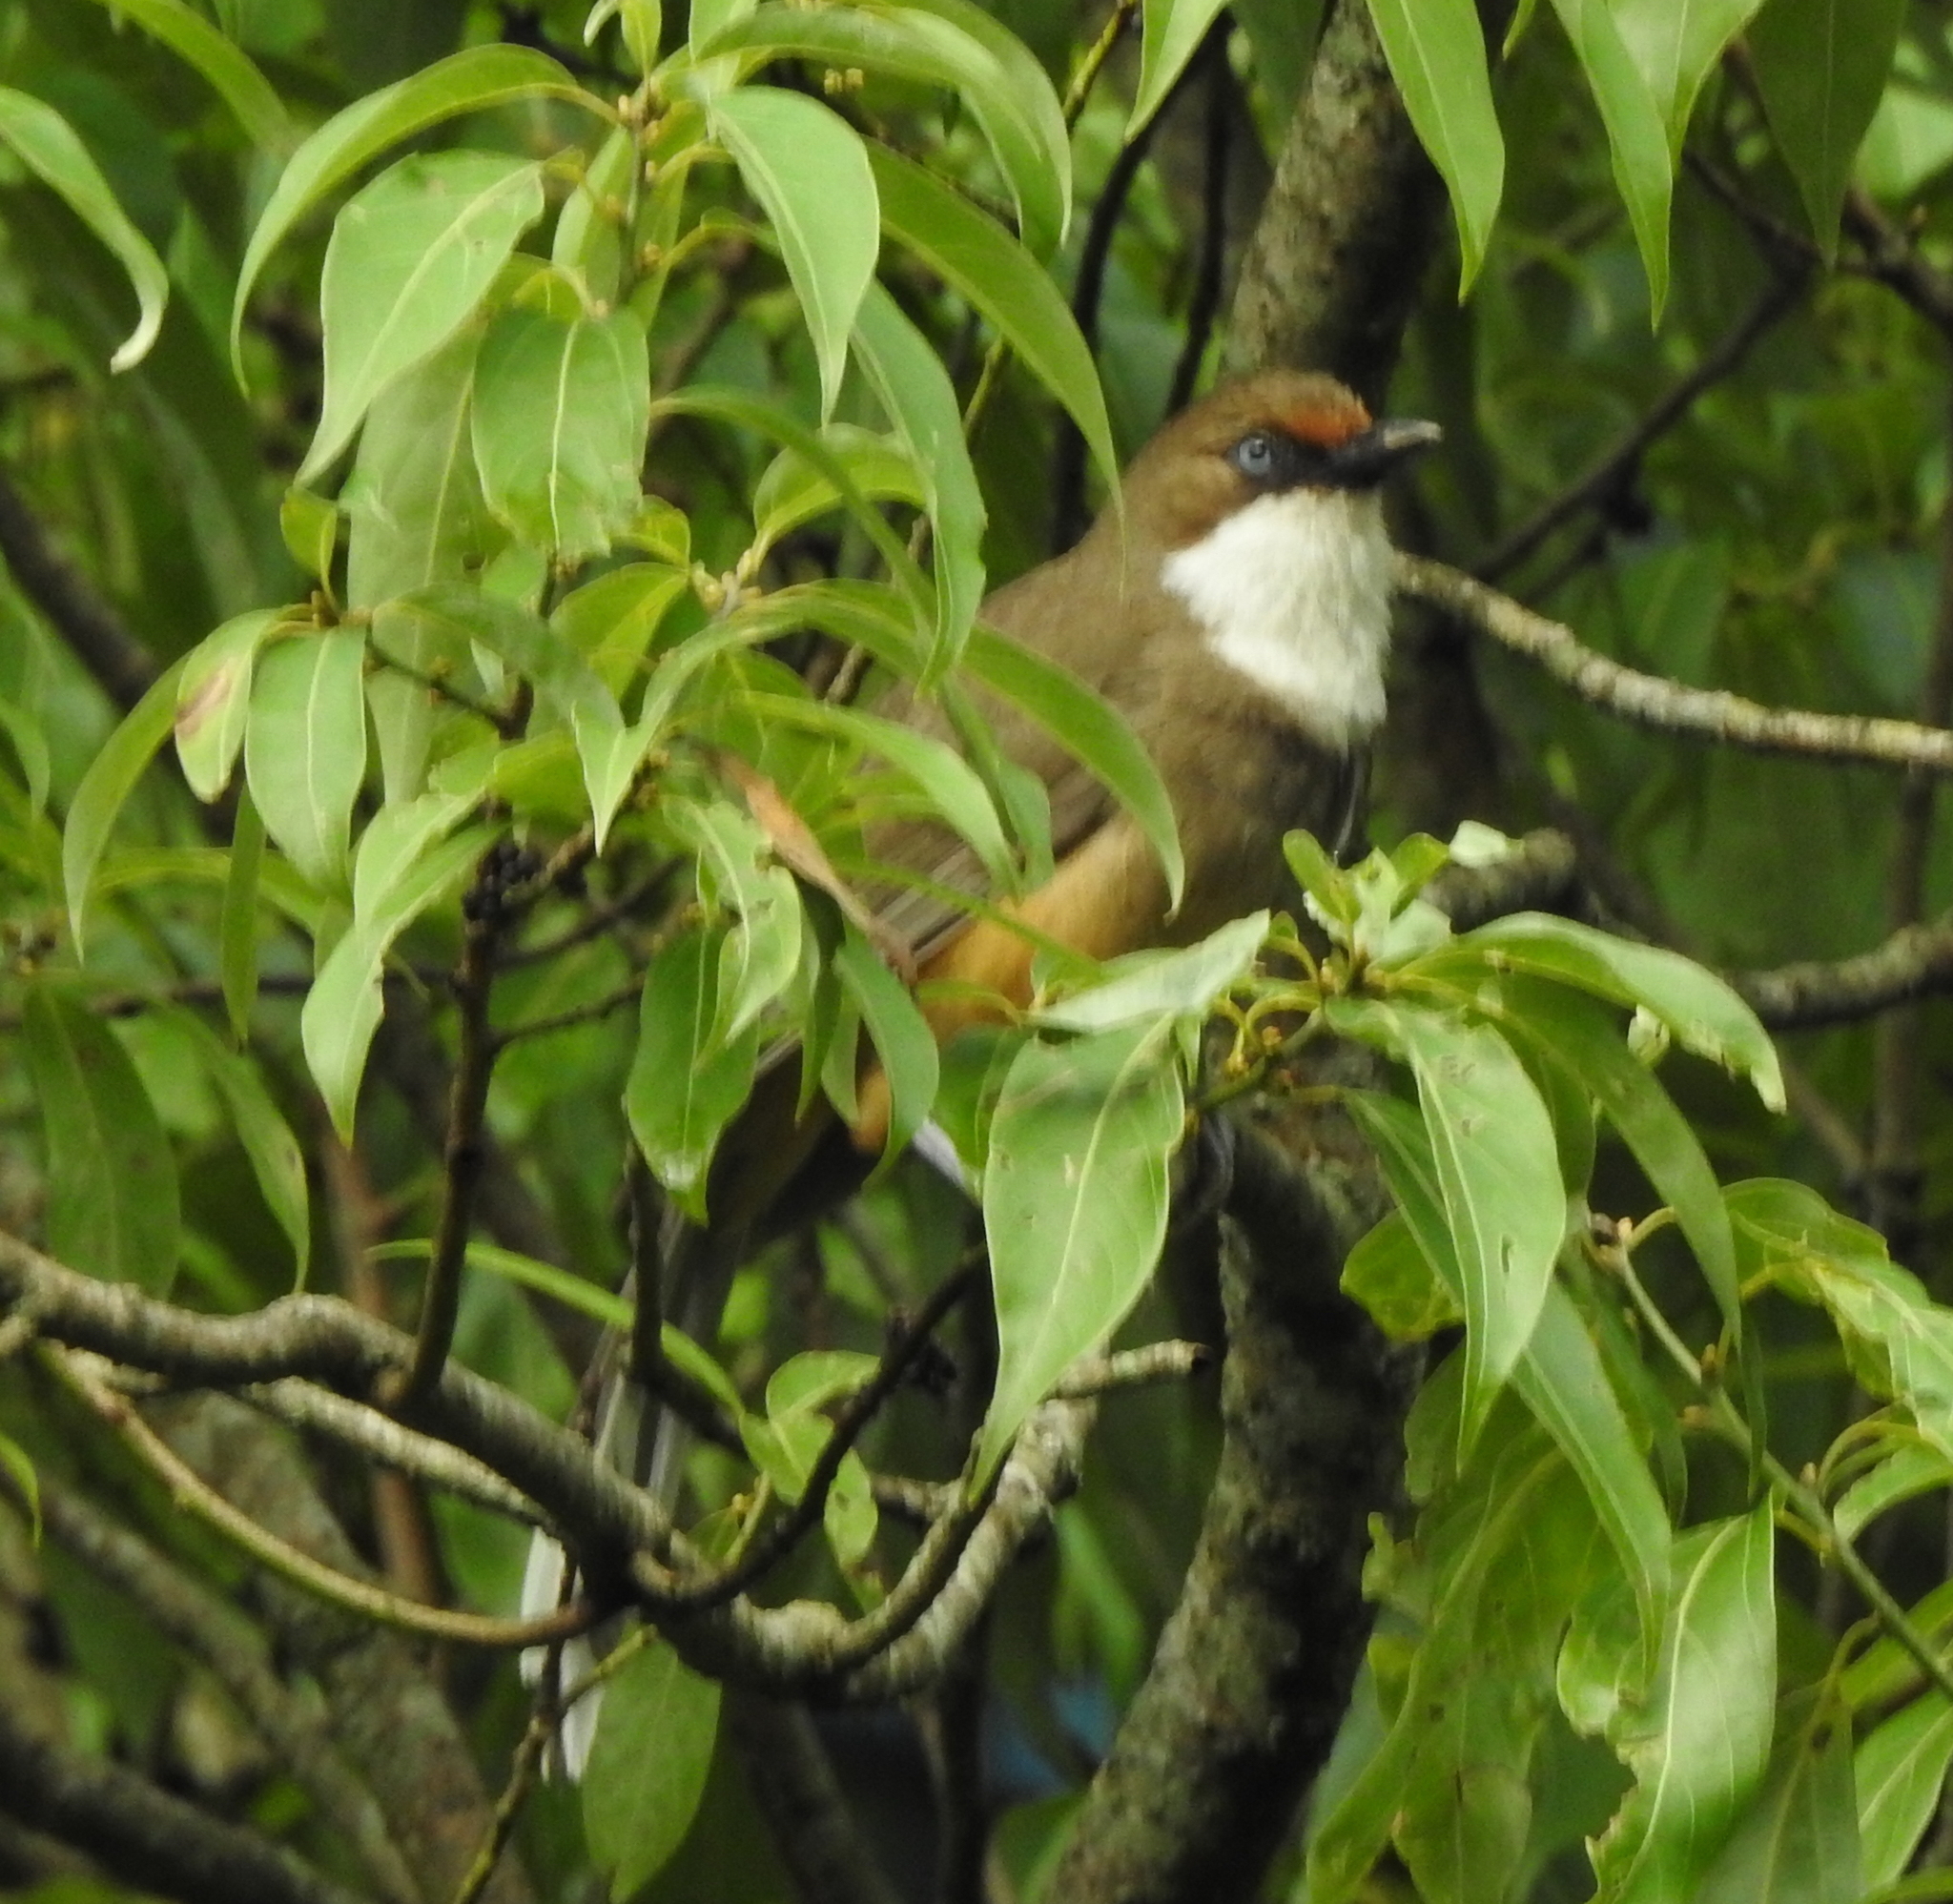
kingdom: Animalia
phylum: Chordata
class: Aves
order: Passeriformes
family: Leiothrichidae
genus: Garrulax
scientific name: Garrulax albogularis
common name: White-throated laughingthrush
